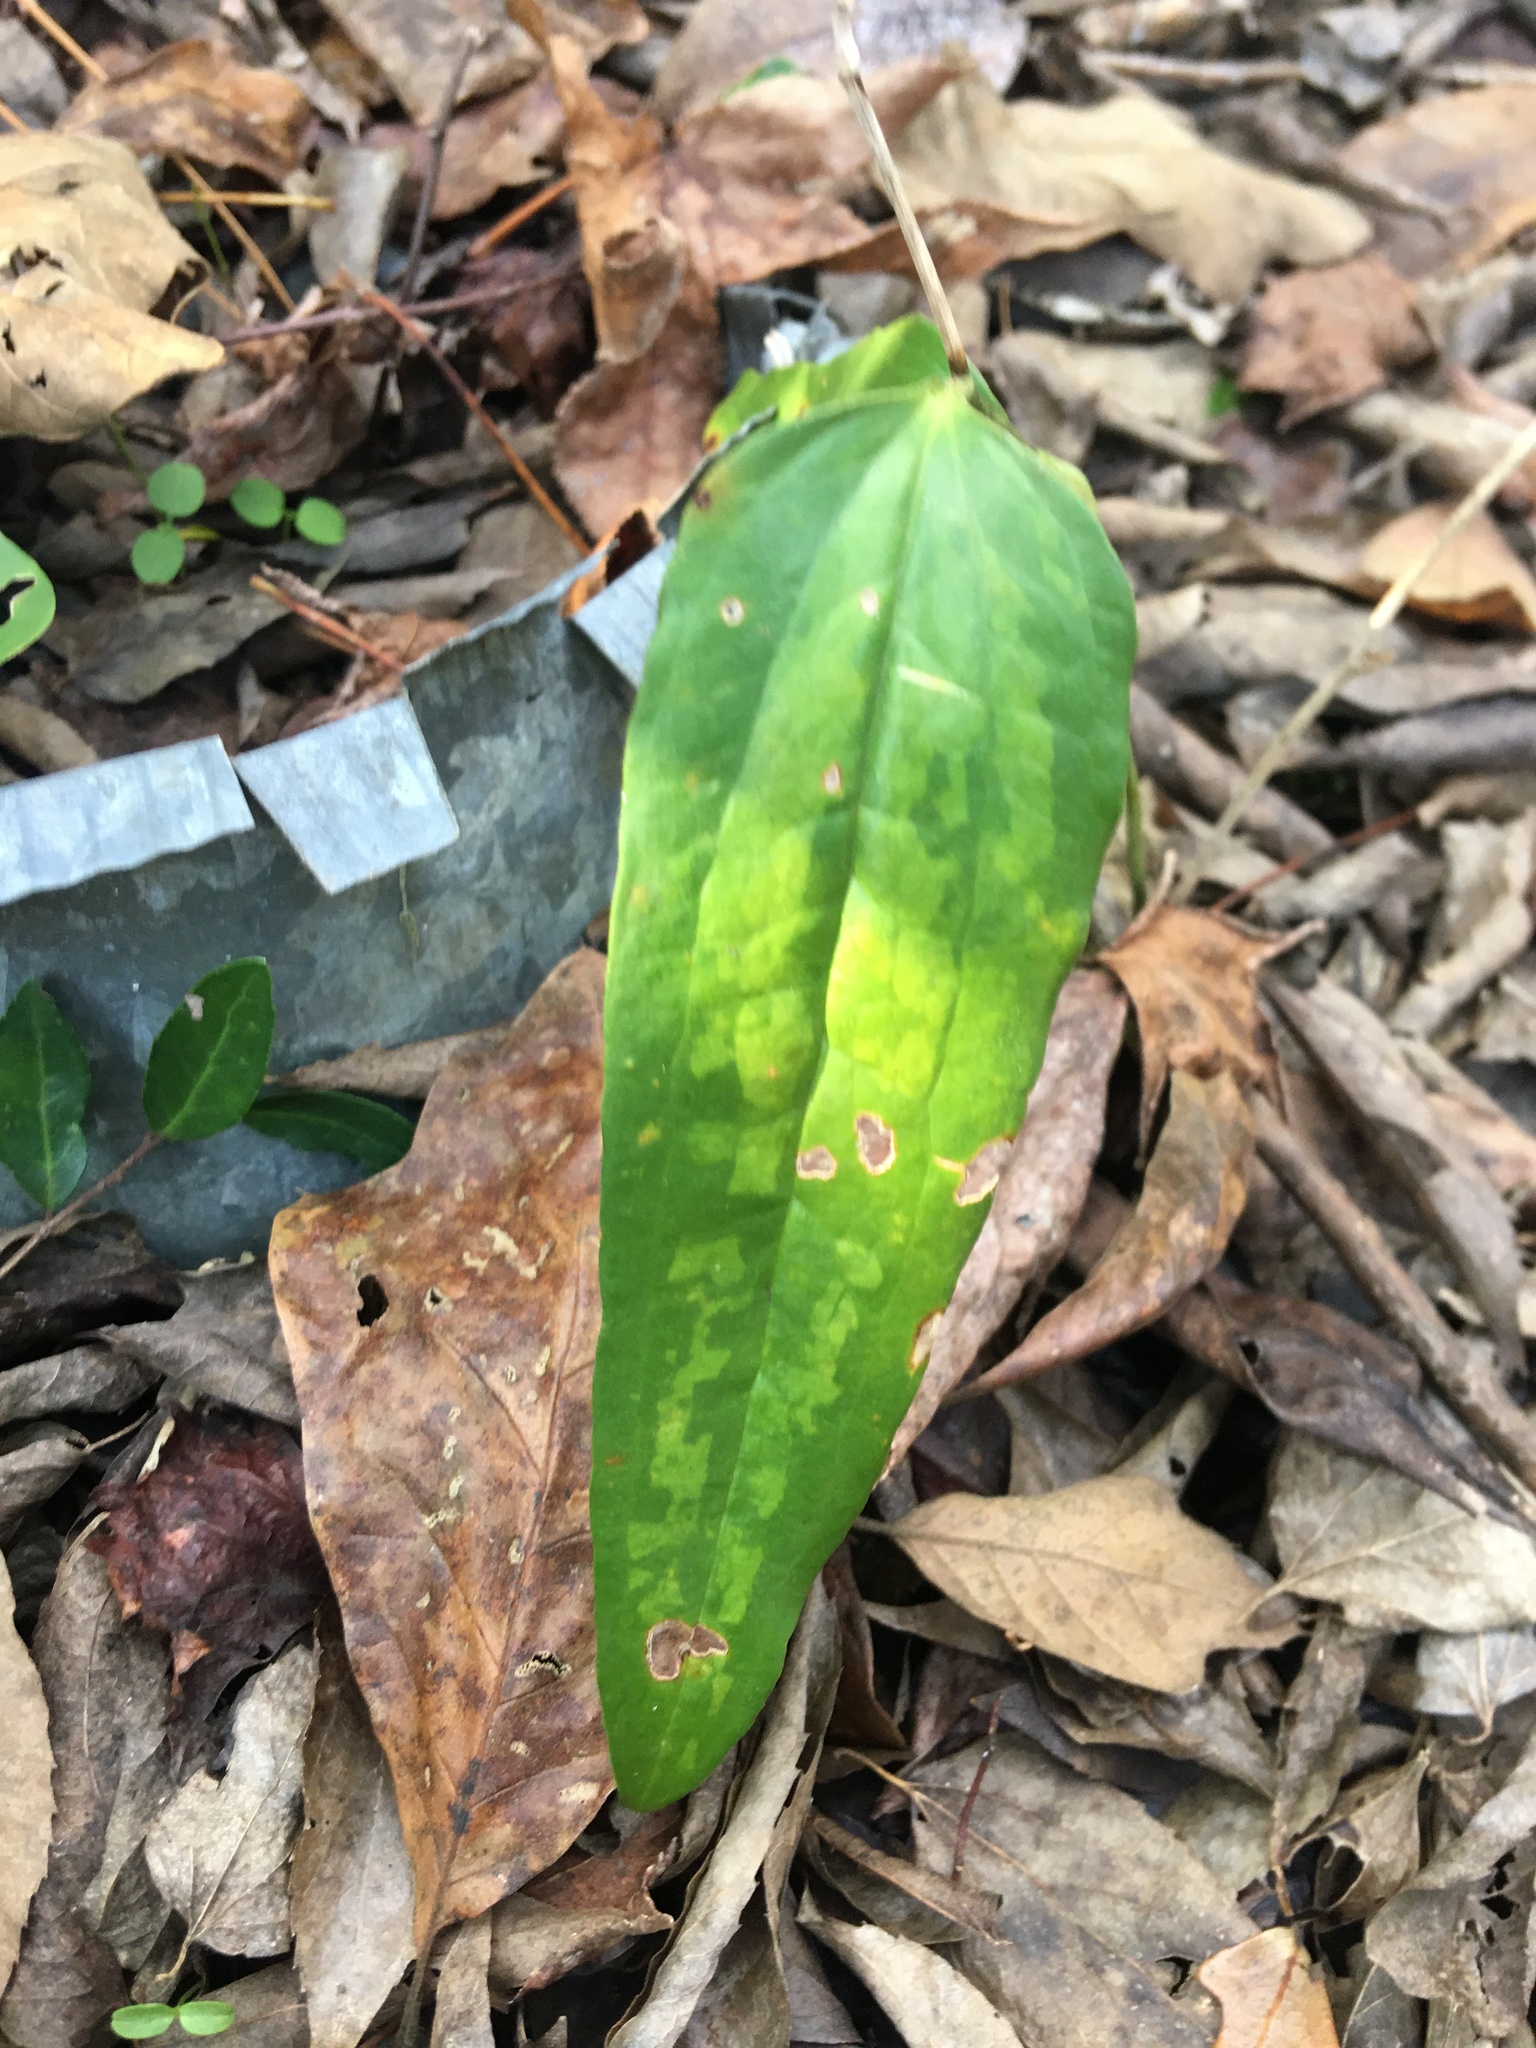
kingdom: Plantae
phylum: Tracheophyta
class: Liliopsida
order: Liliales
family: Smilacaceae
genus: Smilax
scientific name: Smilax maritima
